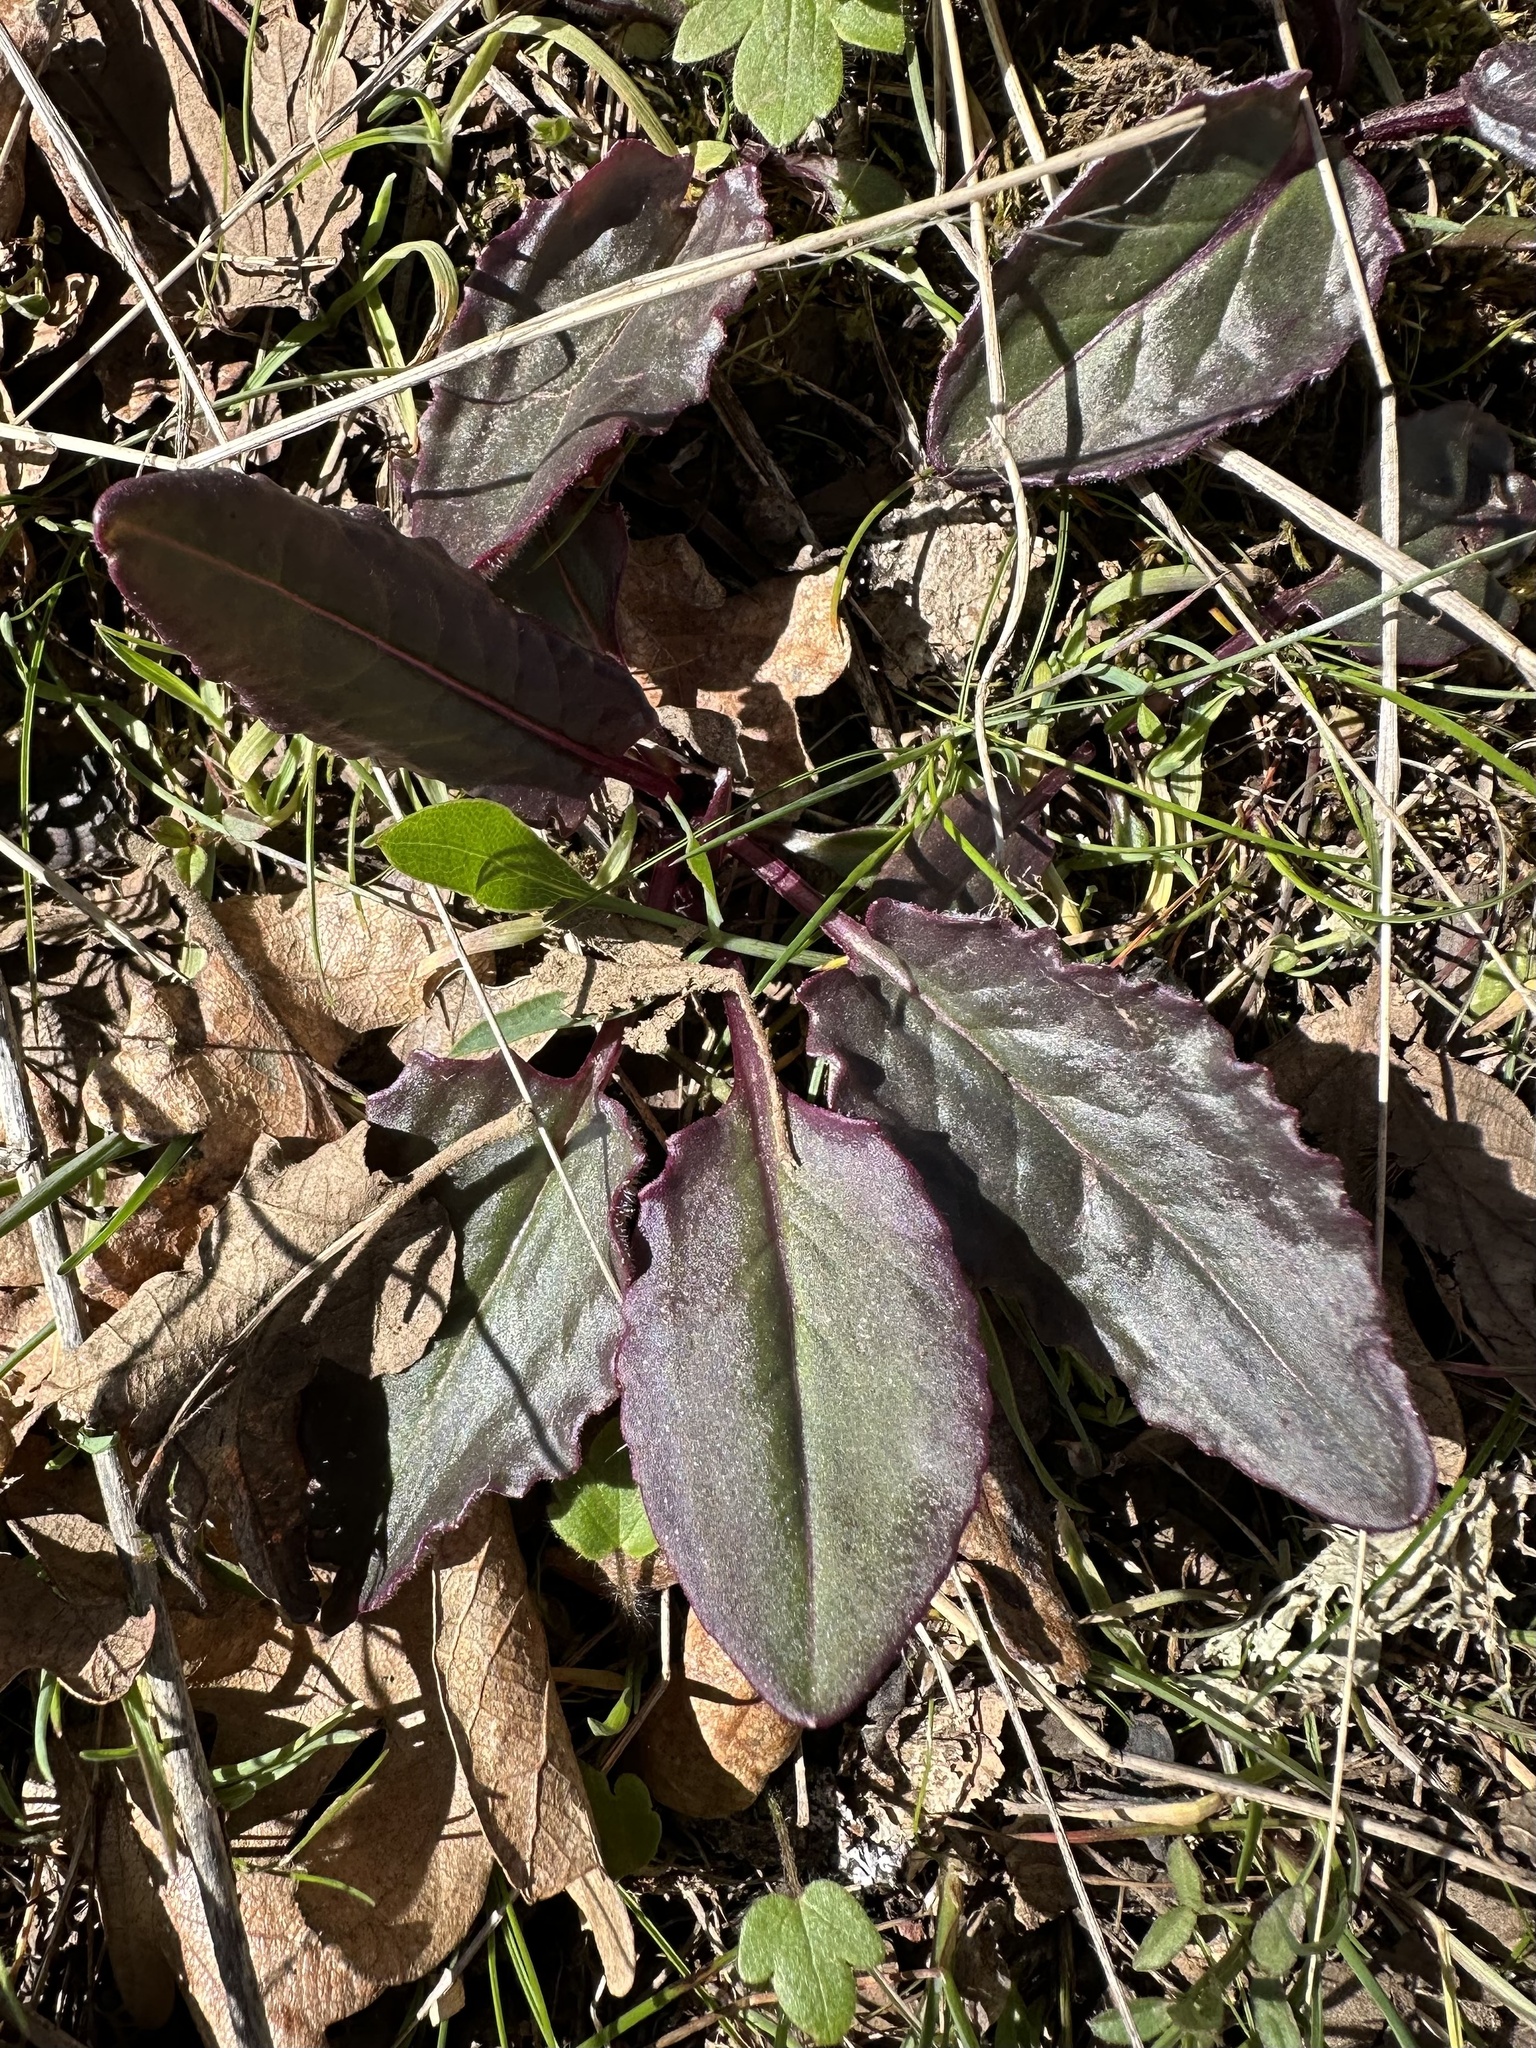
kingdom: Plantae
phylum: Tracheophyta
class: Magnoliopsida
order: Asterales
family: Asteraceae
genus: Senecio
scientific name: Senecio integerrimus
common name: Gaugeplant
